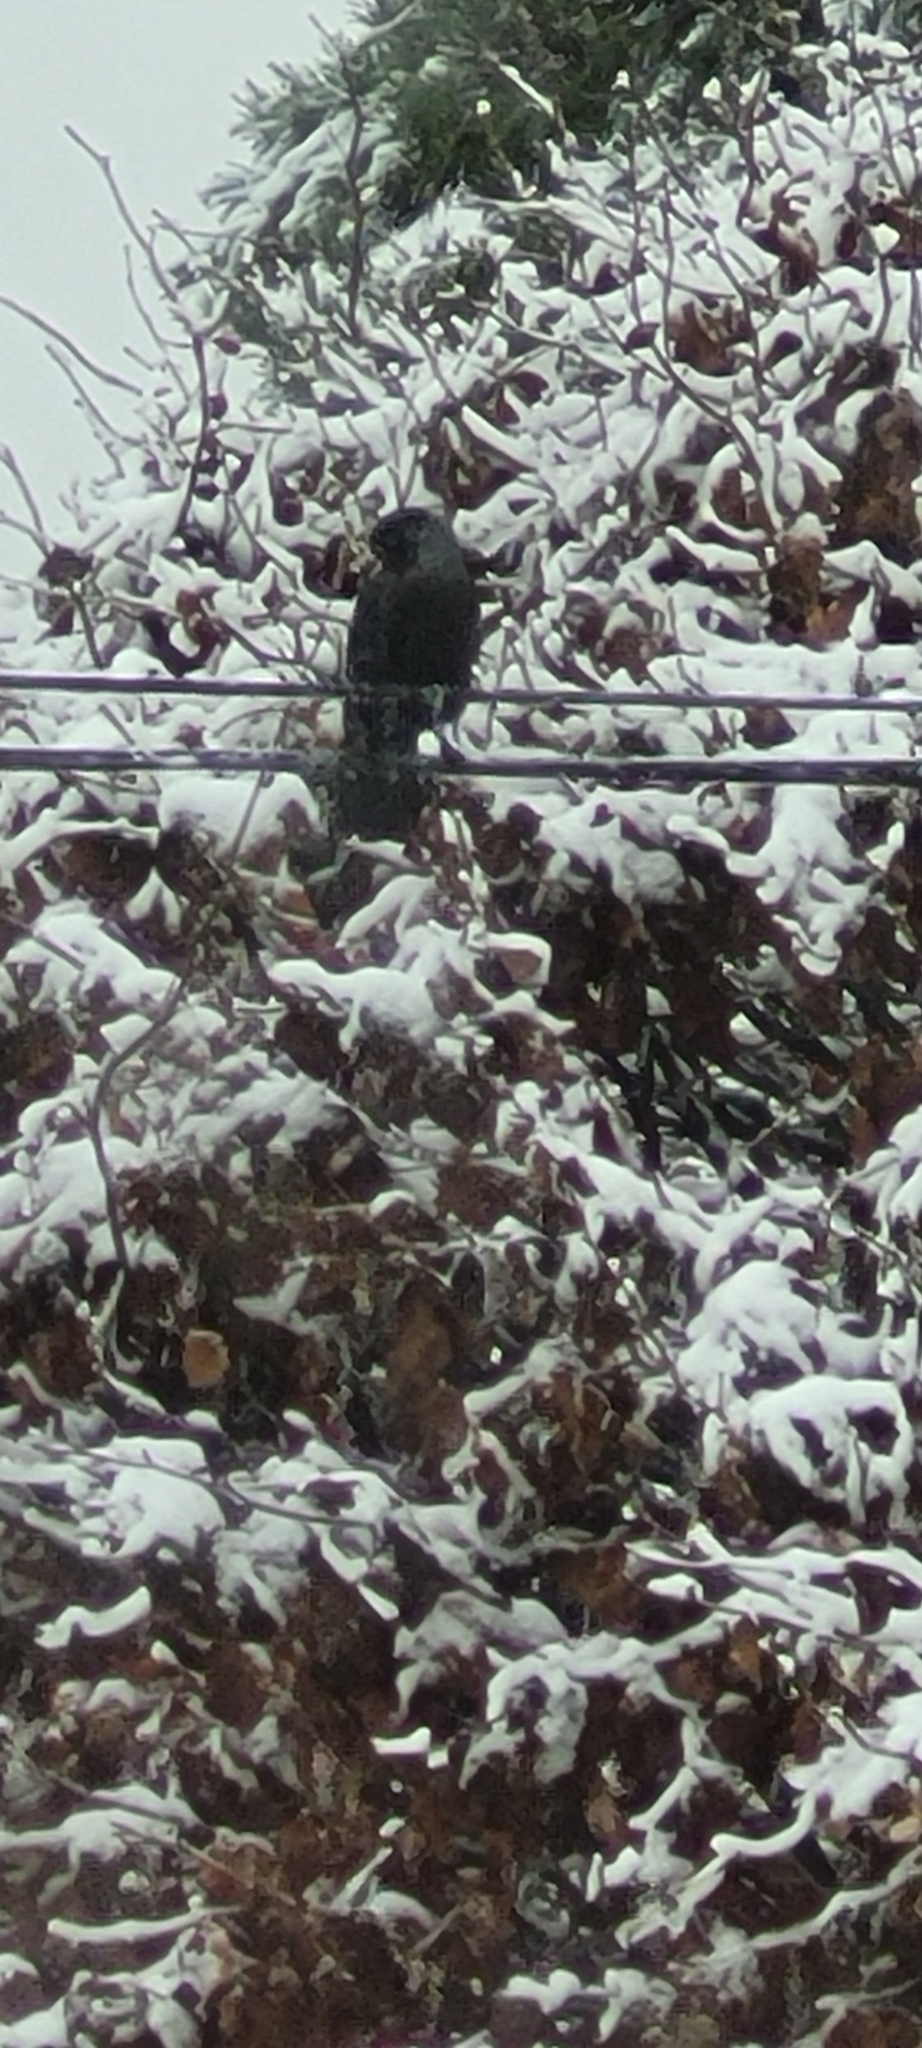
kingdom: Animalia
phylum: Chordata
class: Aves
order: Passeriformes
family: Corvidae
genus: Coloeus
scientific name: Coloeus monedula
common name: Western jackdaw
